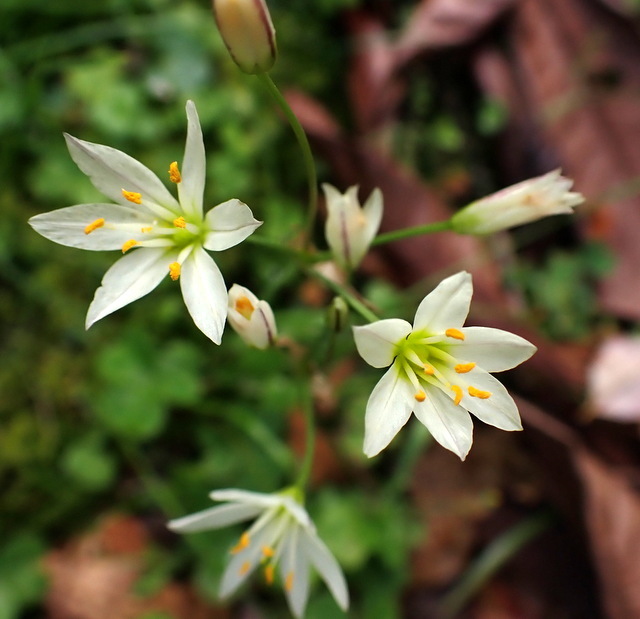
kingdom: Plantae
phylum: Tracheophyta
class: Liliopsida
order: Asparagales
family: Amaryllidaceae
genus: Nothoscordum
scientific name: Nothoscordum bivalve
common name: Crow-poison
